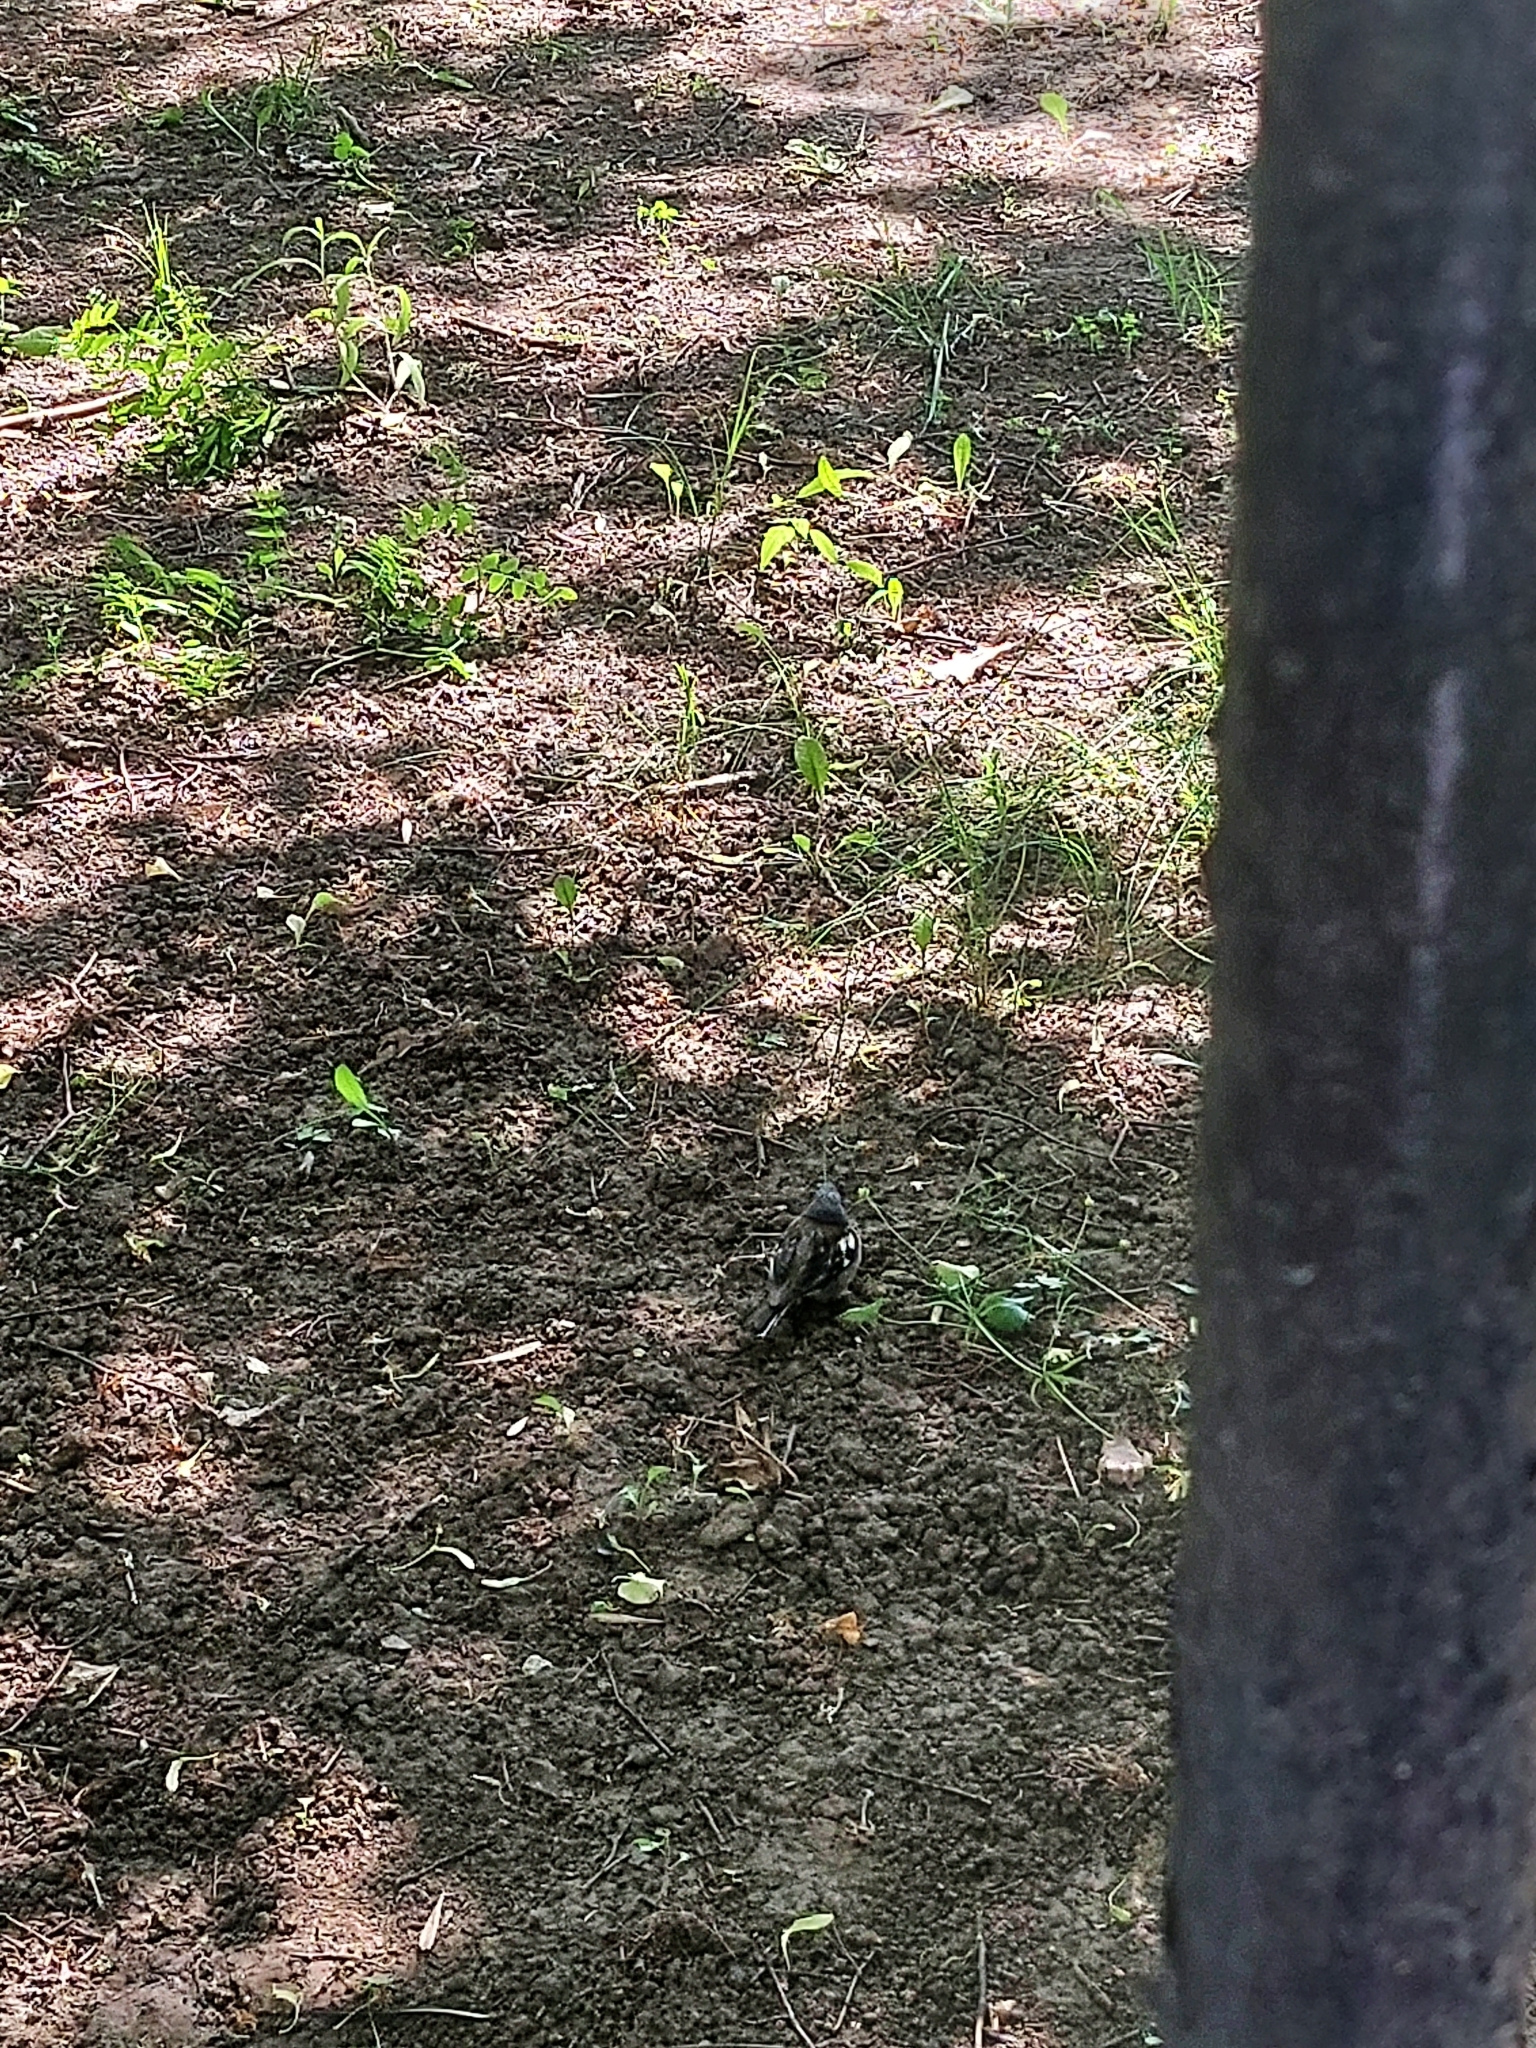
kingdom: Animalia
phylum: Chordata
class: Aves
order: Passeriformes
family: Fringillidae
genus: Fringilla
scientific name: Fringilla coelebs
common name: Common chaffinch
